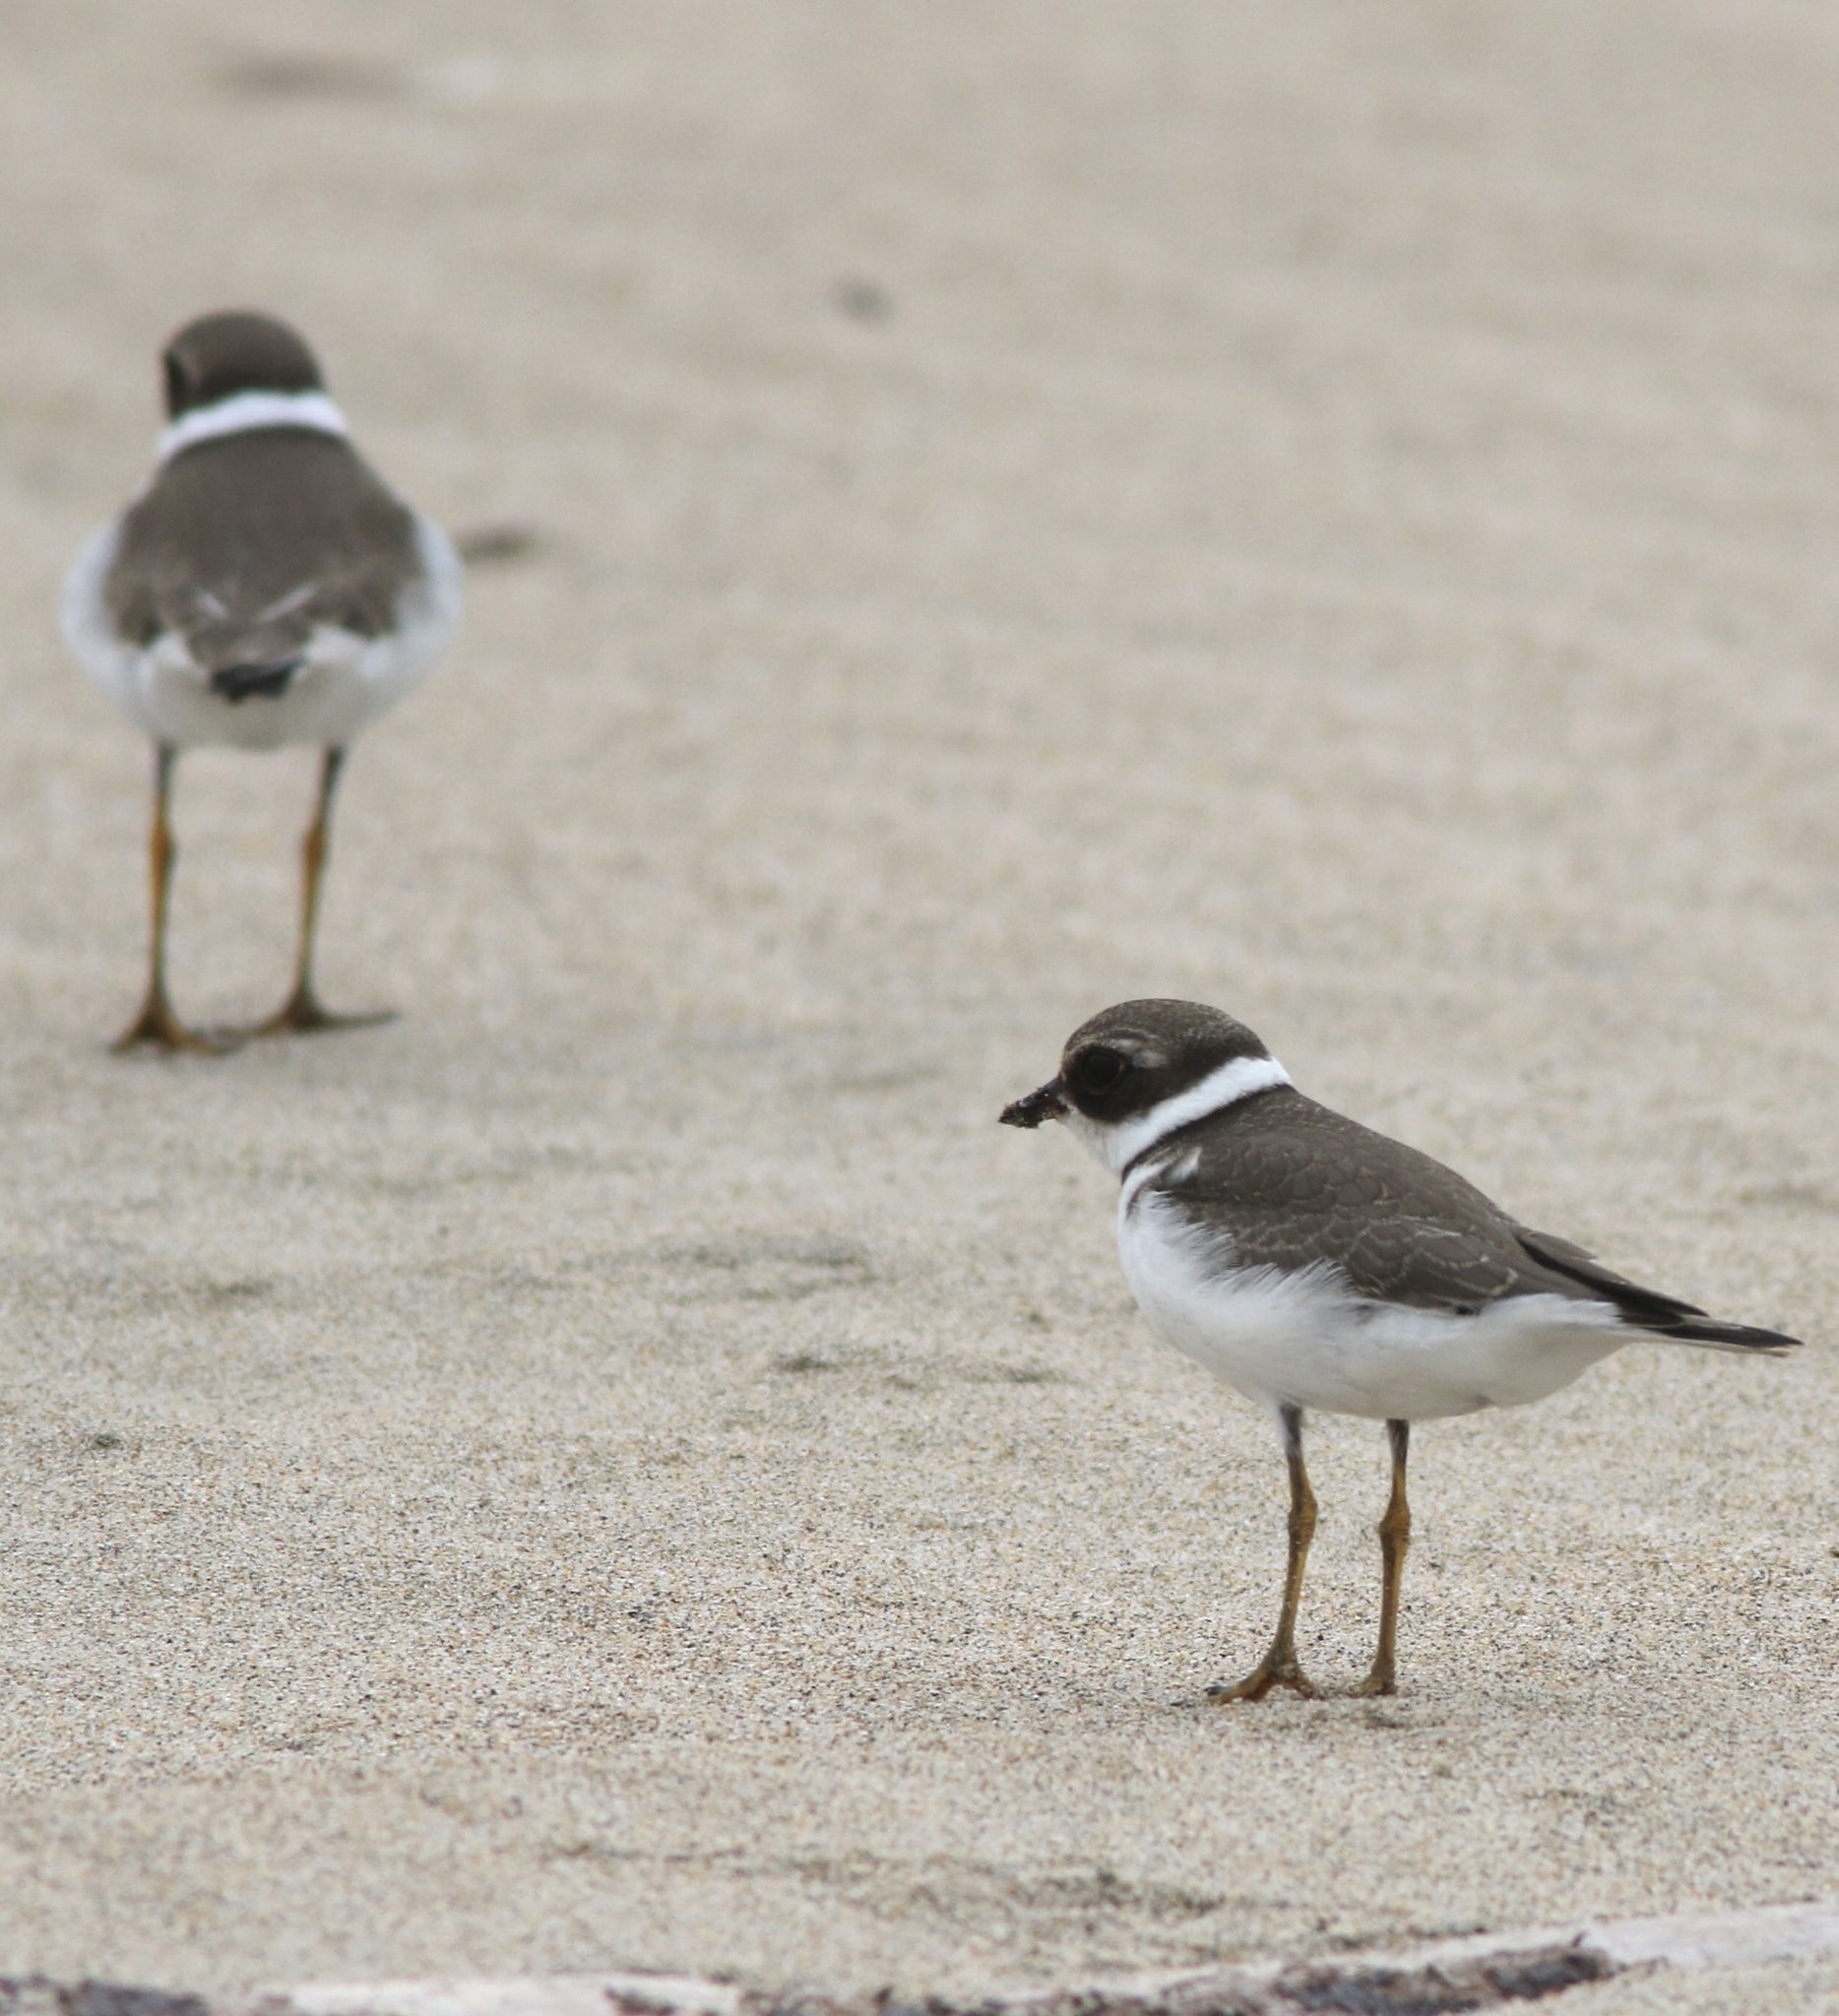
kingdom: Animalia
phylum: Chordata
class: Aves
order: Charadriiformes
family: Charadriidae
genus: Charadrius
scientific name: Charadrius semipalmatus
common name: Semipalmated plover
